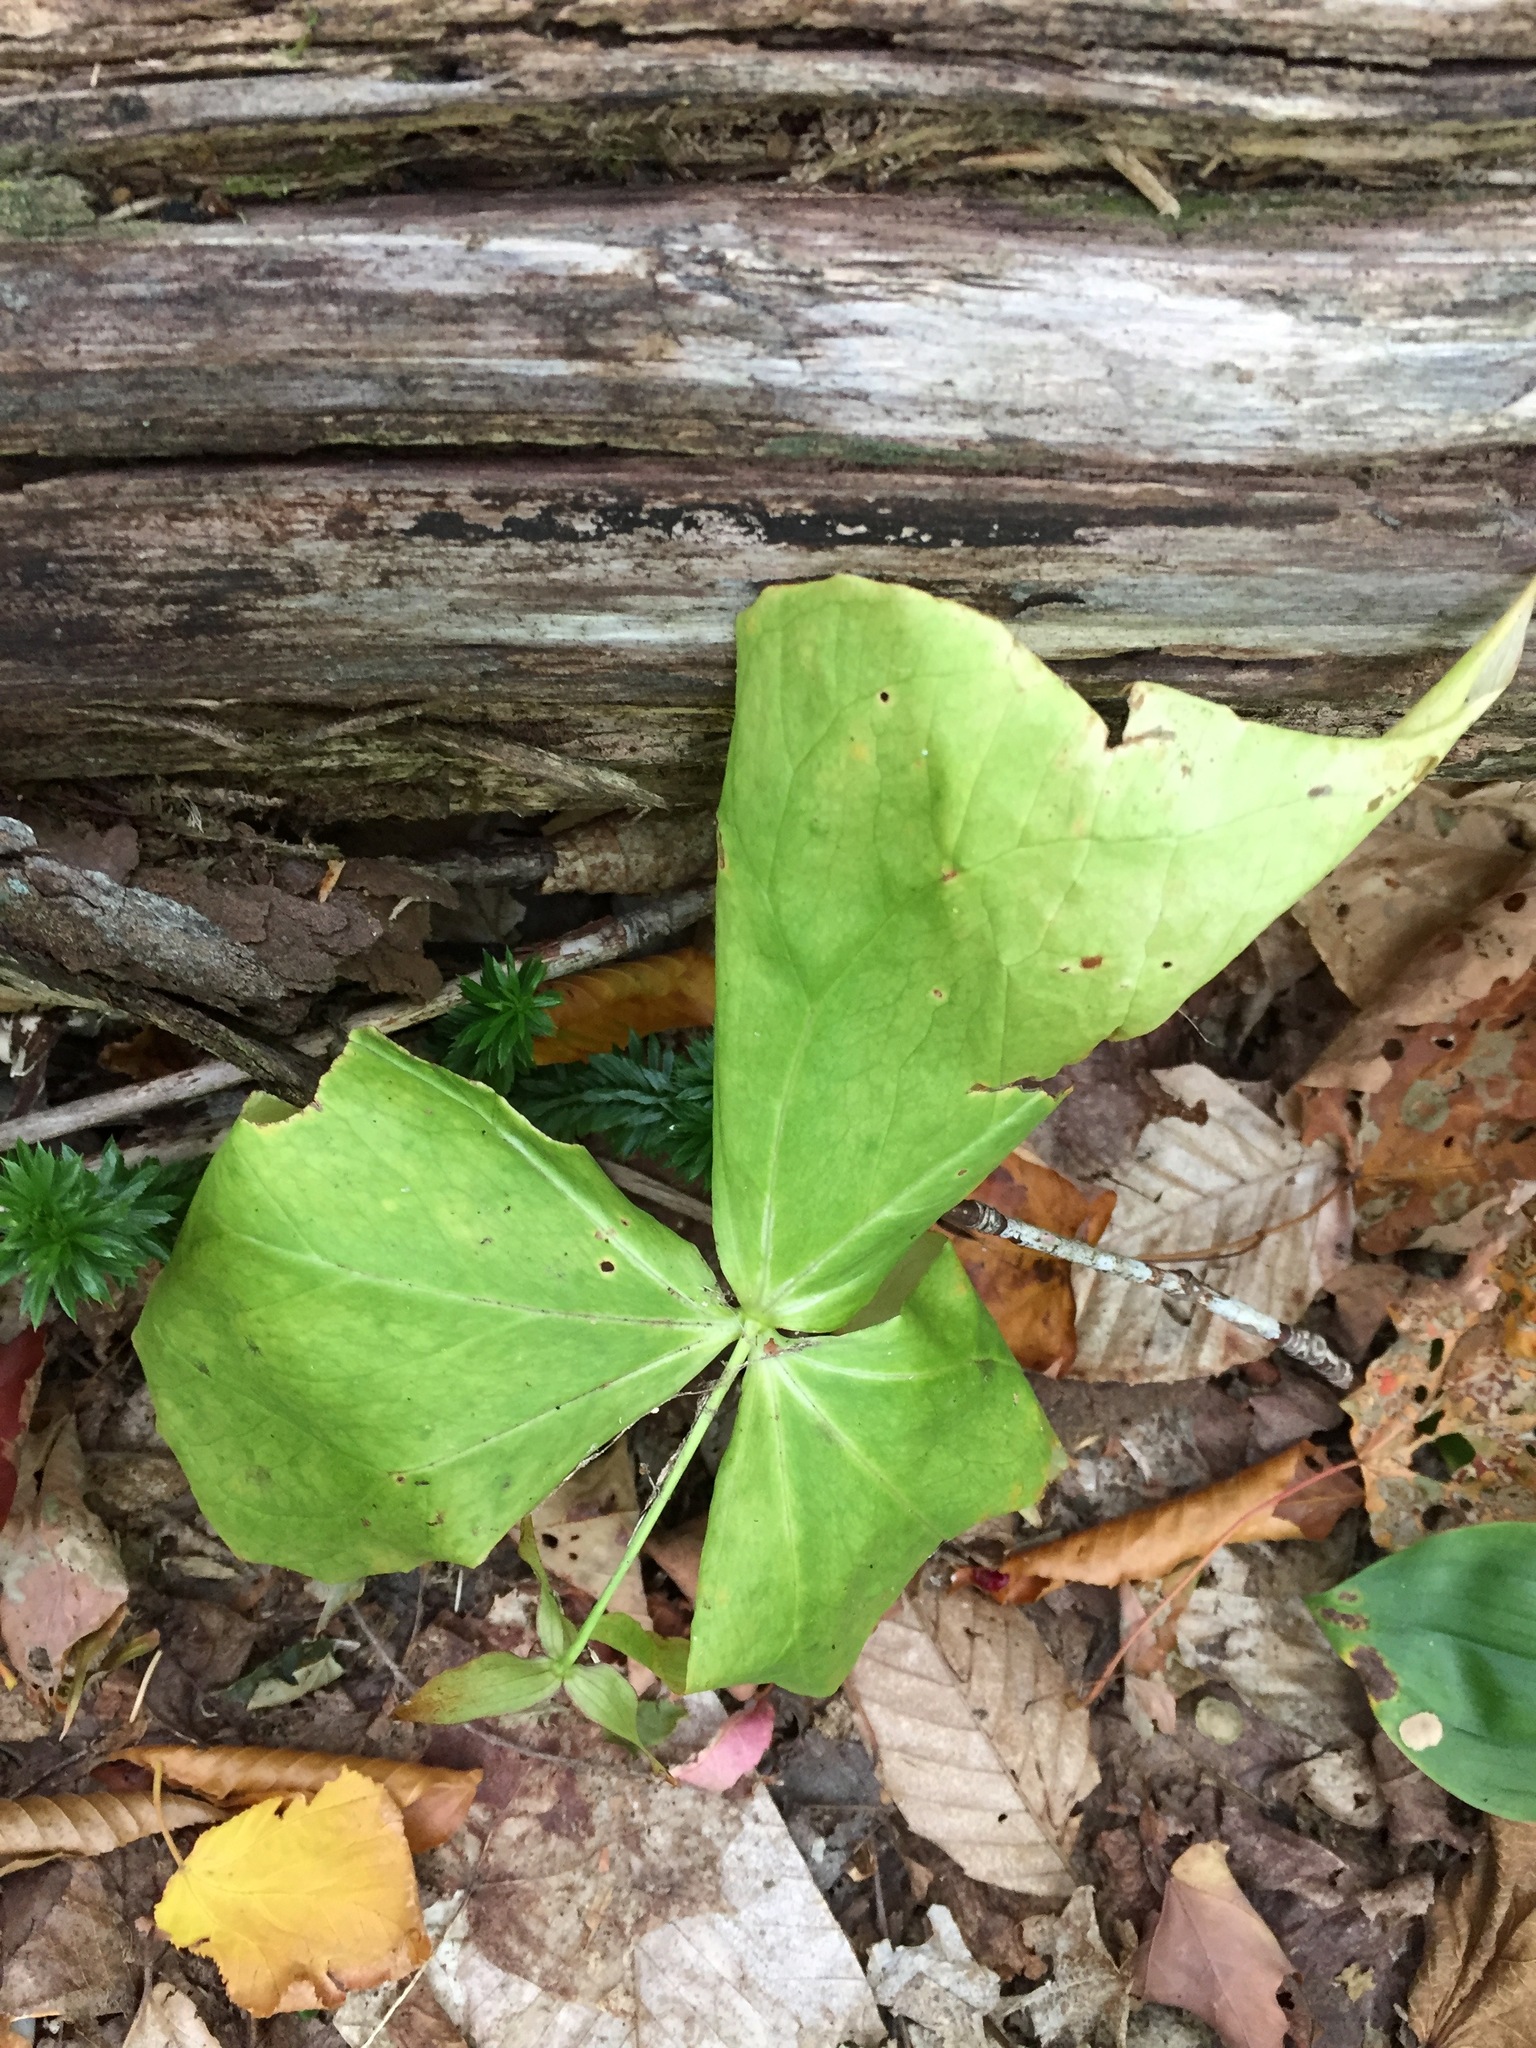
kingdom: Plantae
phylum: Tracheophyta
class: Liliopsida
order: Liliales
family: Melanthiaceae
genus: Trillium
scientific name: Trillium erectum
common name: Purple trillium
